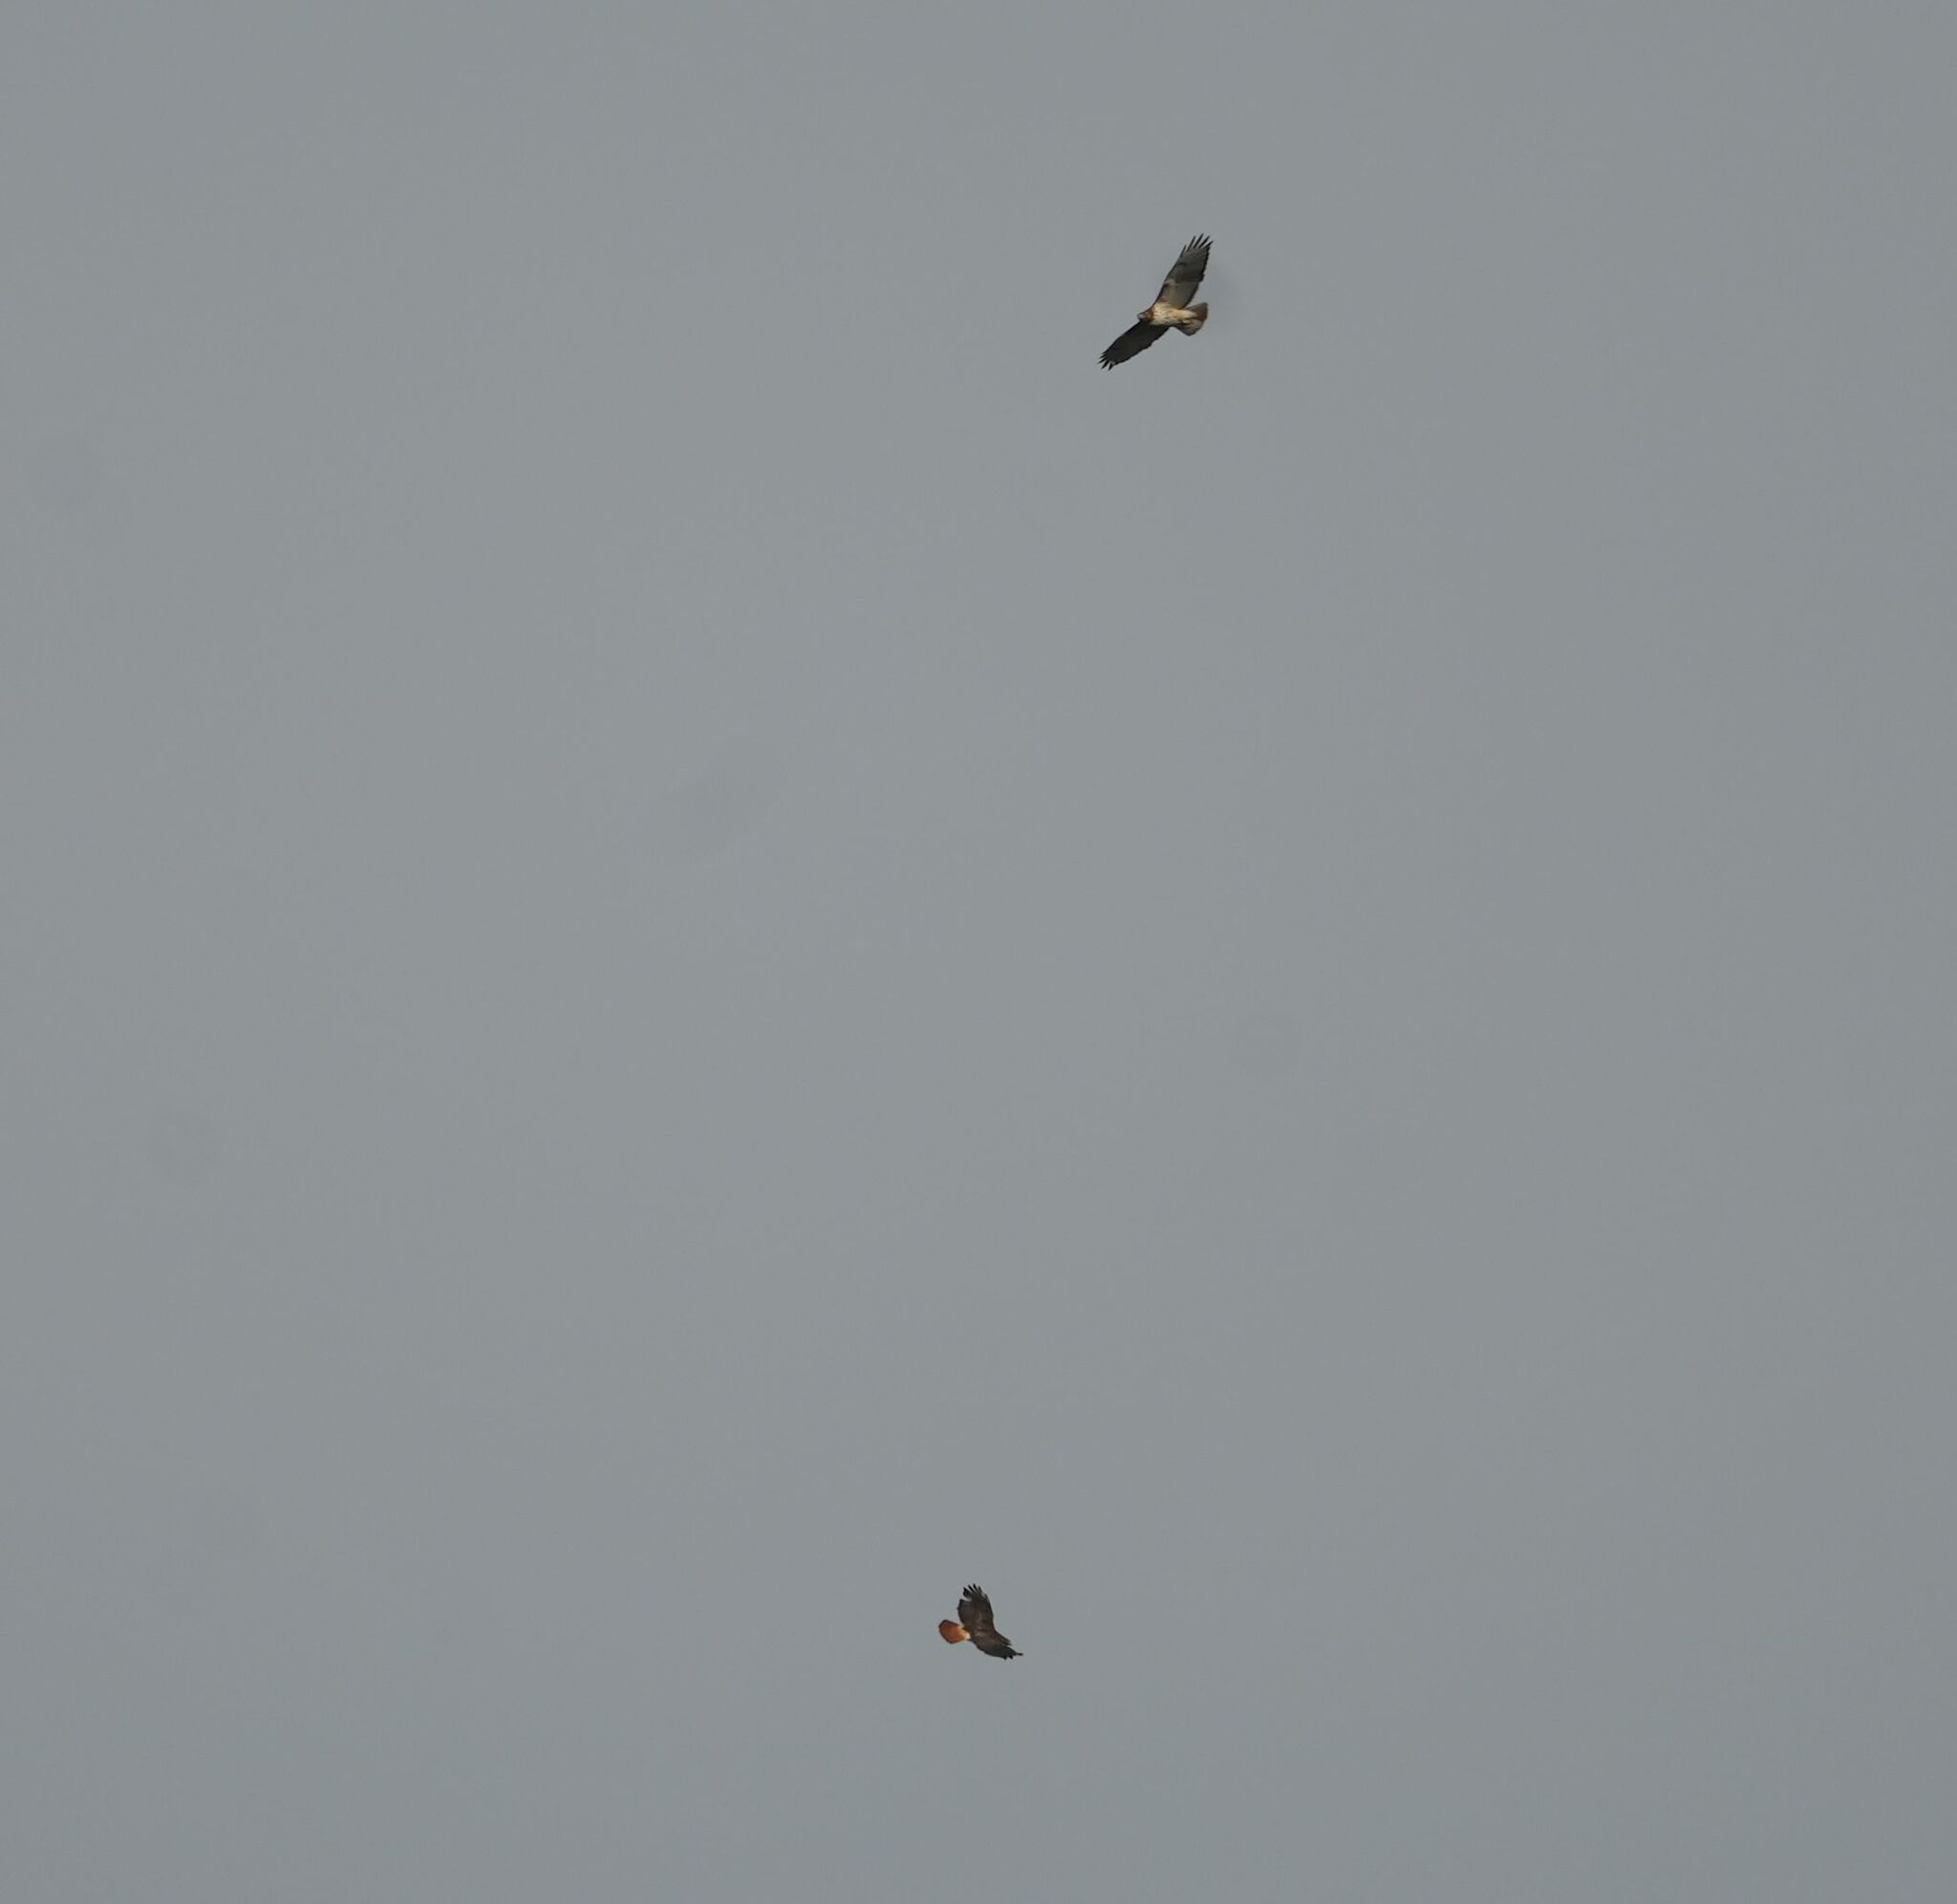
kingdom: Animalia
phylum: Chordata
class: Aves
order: Accipitriformes
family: Accipitridae
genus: Buteo
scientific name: Buteo jamaicensis
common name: Red-tailed hawk
